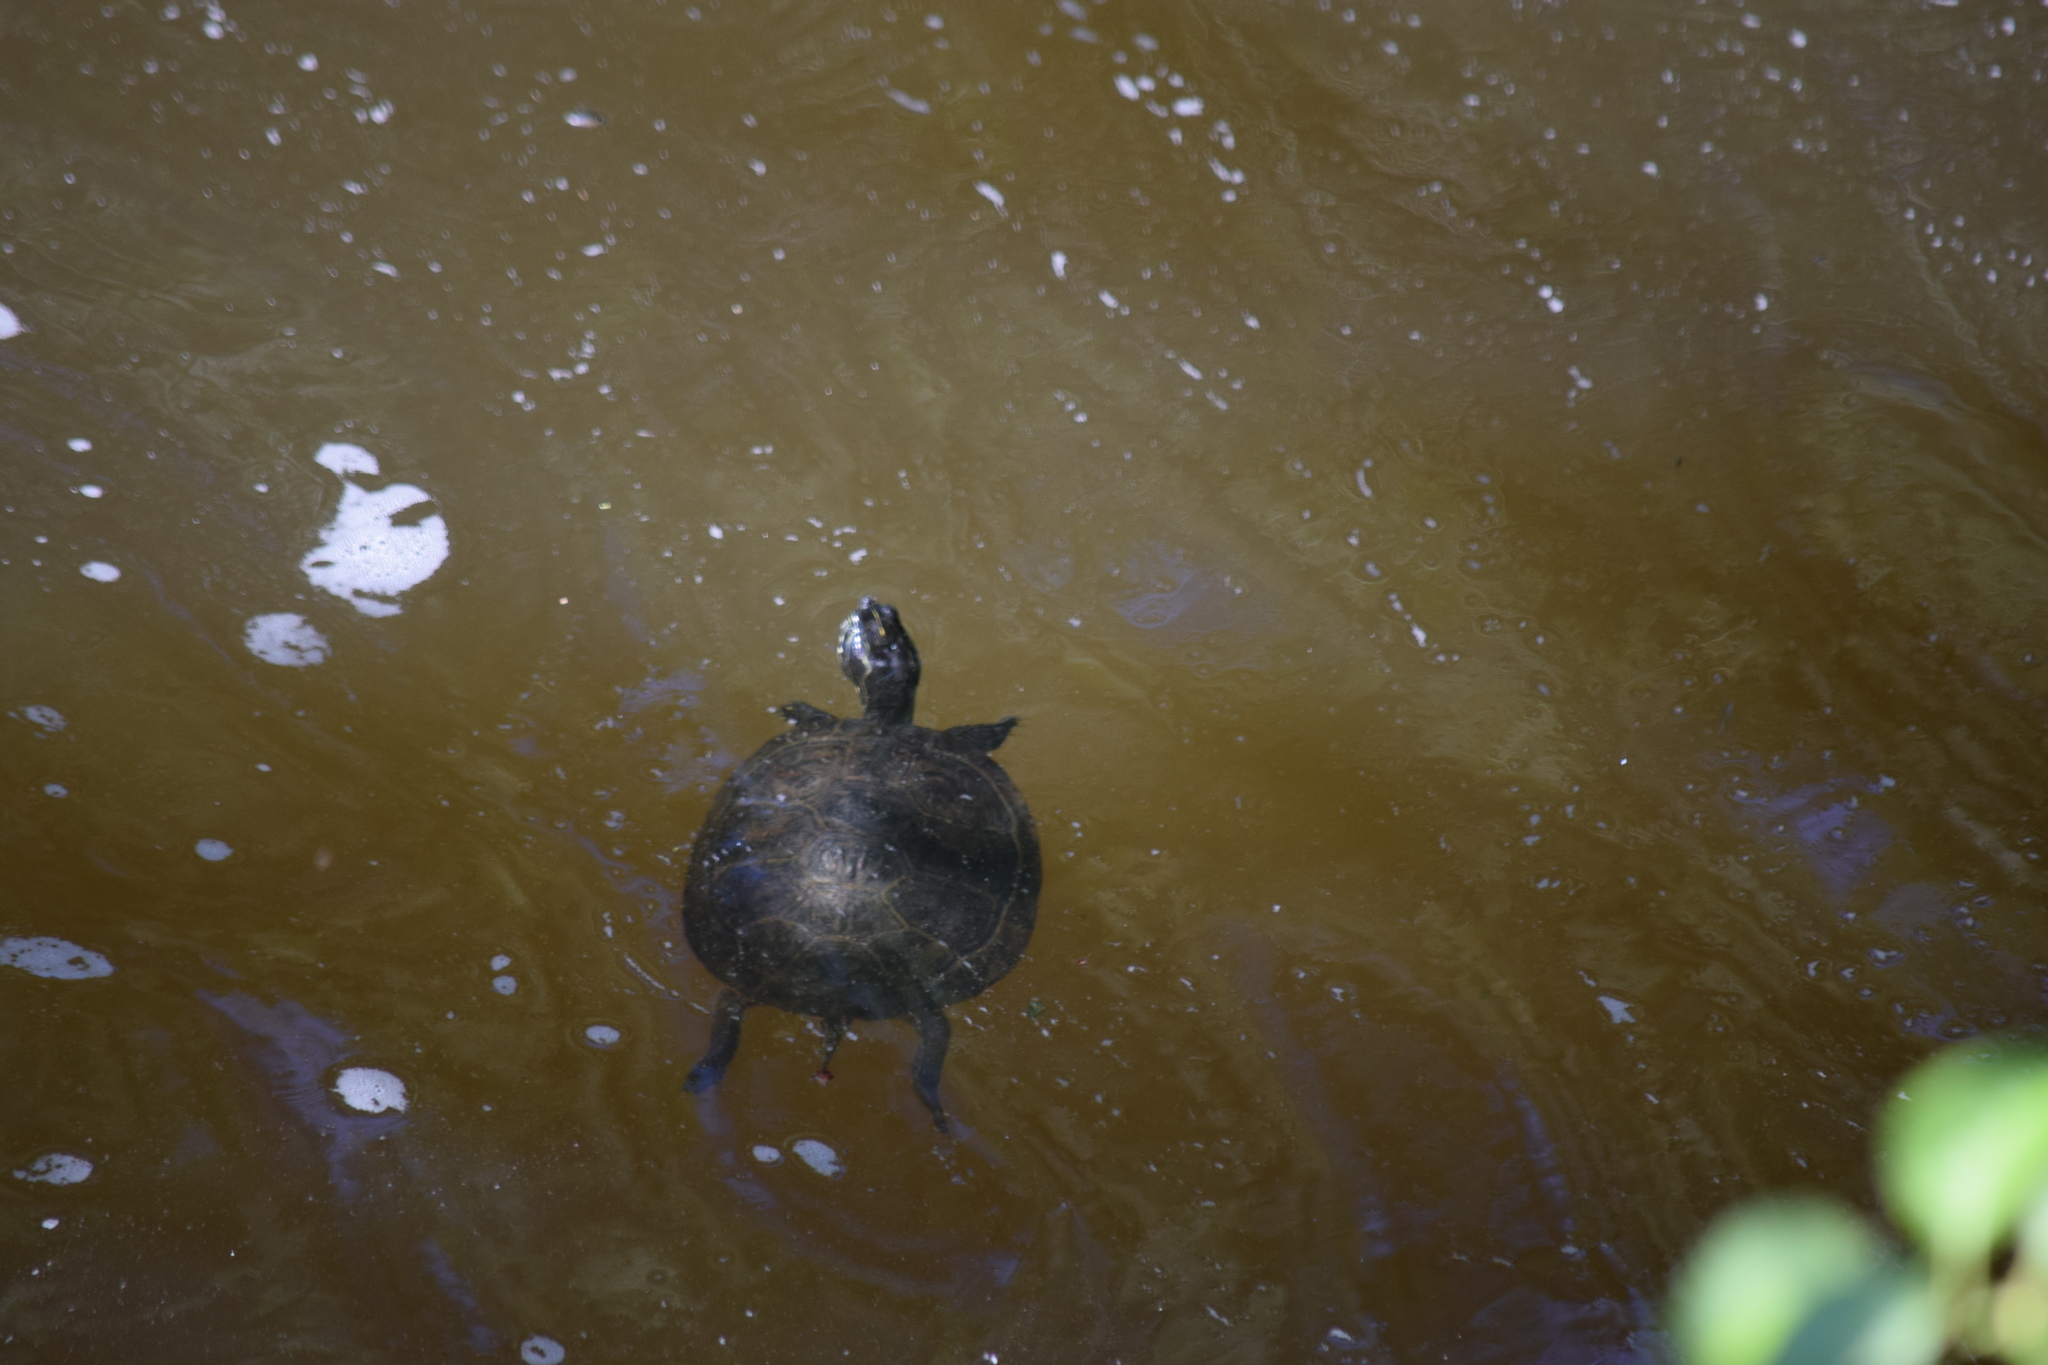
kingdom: Animalia
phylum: Chordata
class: Testudines
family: Emydidae
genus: Pseudemys
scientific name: Pseudemys rubriventris
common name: American red-bellied turtle
